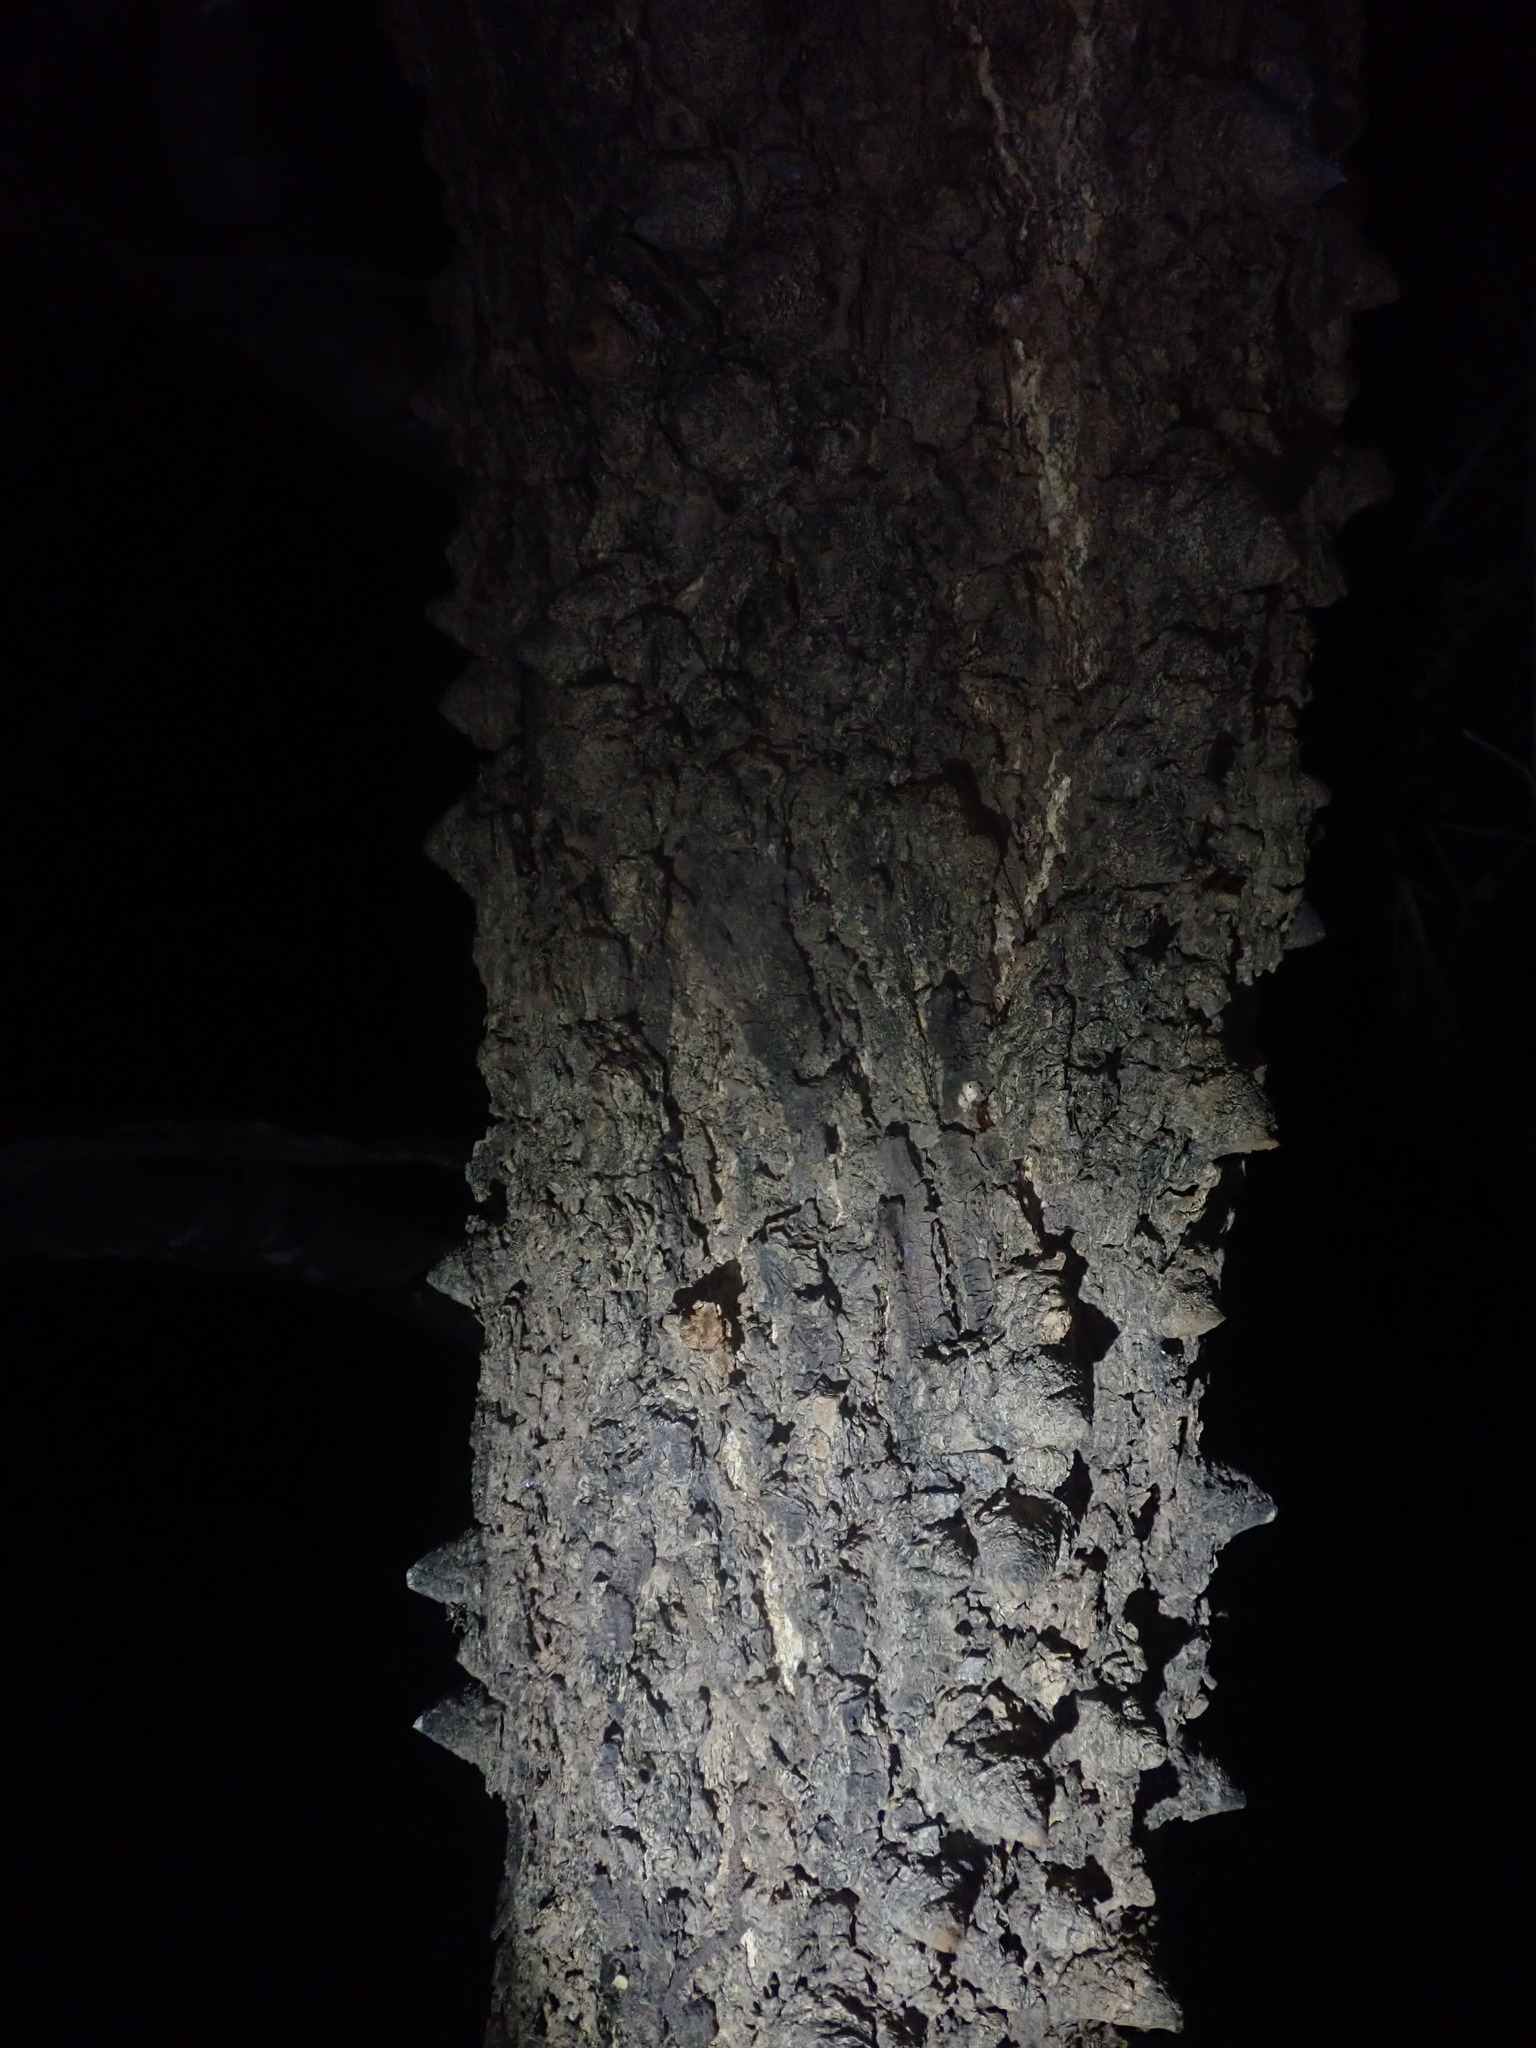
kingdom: Plantae
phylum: Tracheophyta
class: Magnoliopsida
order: Fabales
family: Fabaceae
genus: Senegalia
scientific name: Senegalia nigrescens
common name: Knobthorn
